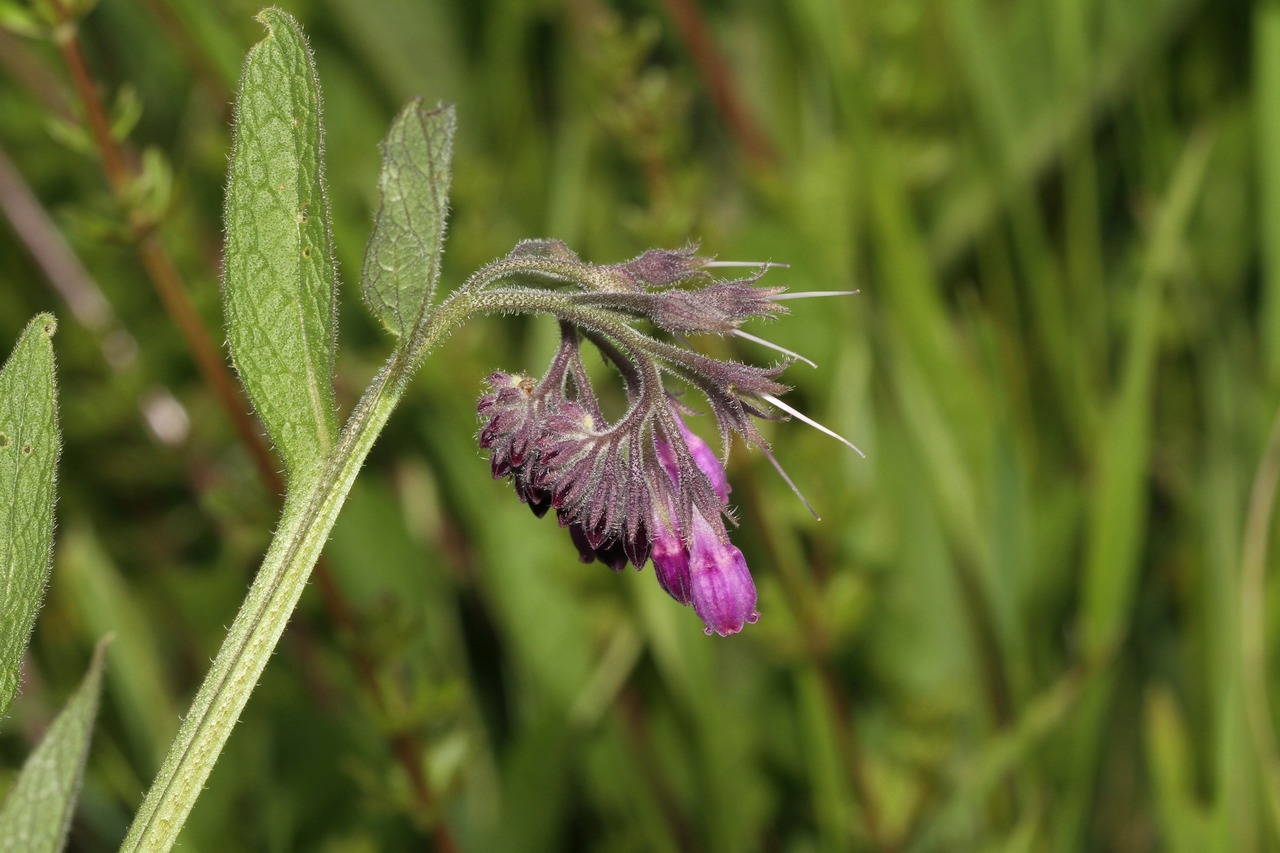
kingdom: Plantae
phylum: Tracheophyta
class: Magnoliopsida
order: Boraginales
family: Boraginaceae
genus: Symphytum
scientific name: Symphytum officinale
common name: Common comfrey
